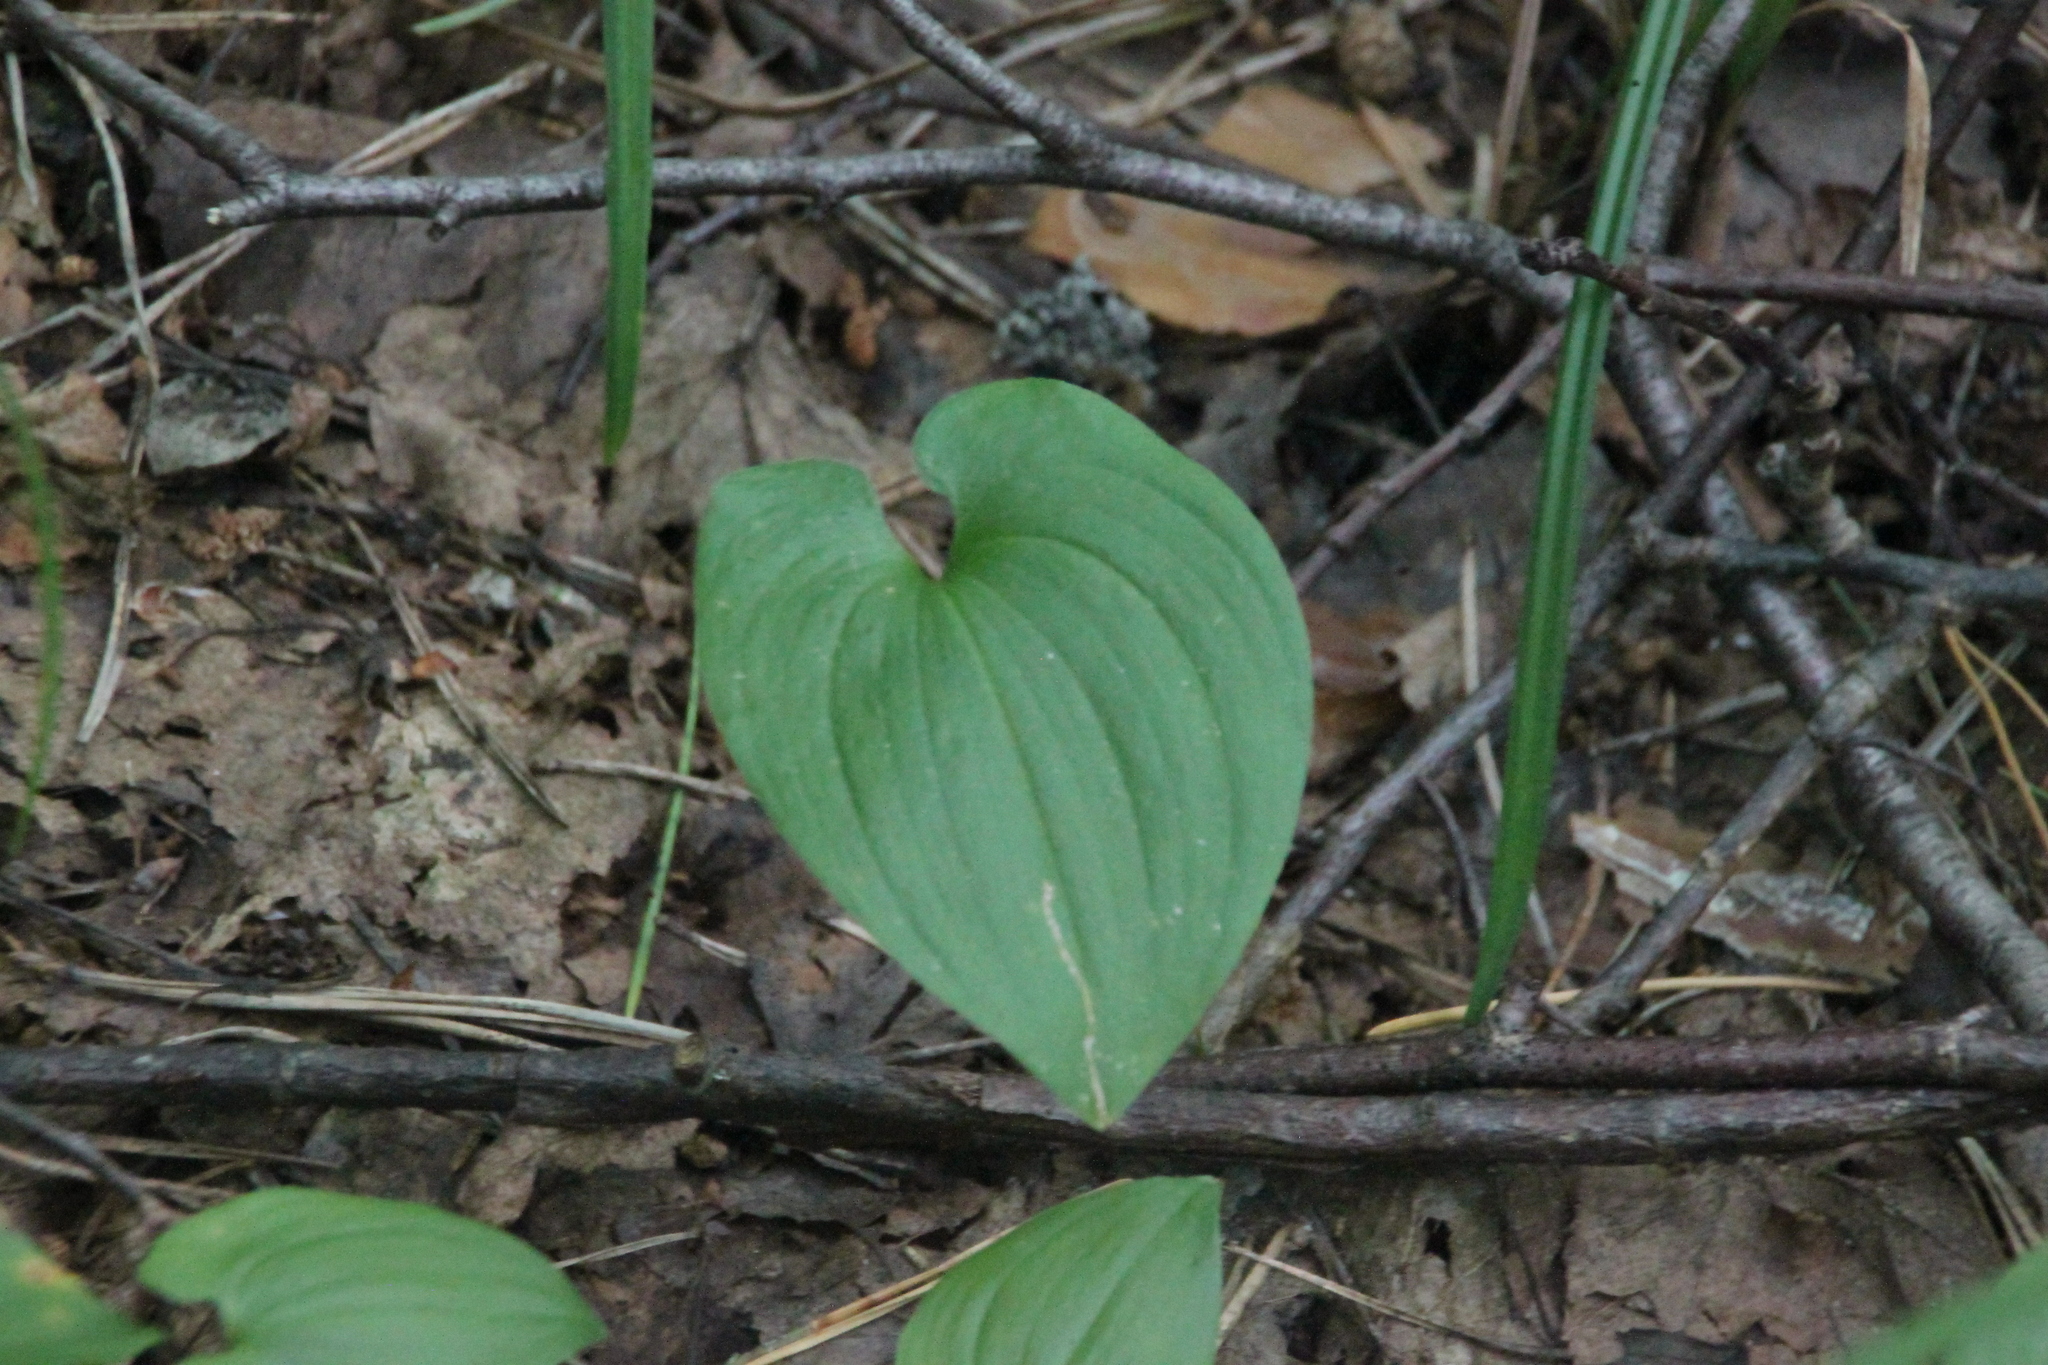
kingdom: Plantae
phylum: Tracheophyta
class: Liliopsida
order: Asparagales
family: Asparagaceae
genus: Maianthemum
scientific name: Maianthemum bifolium
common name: May lily
